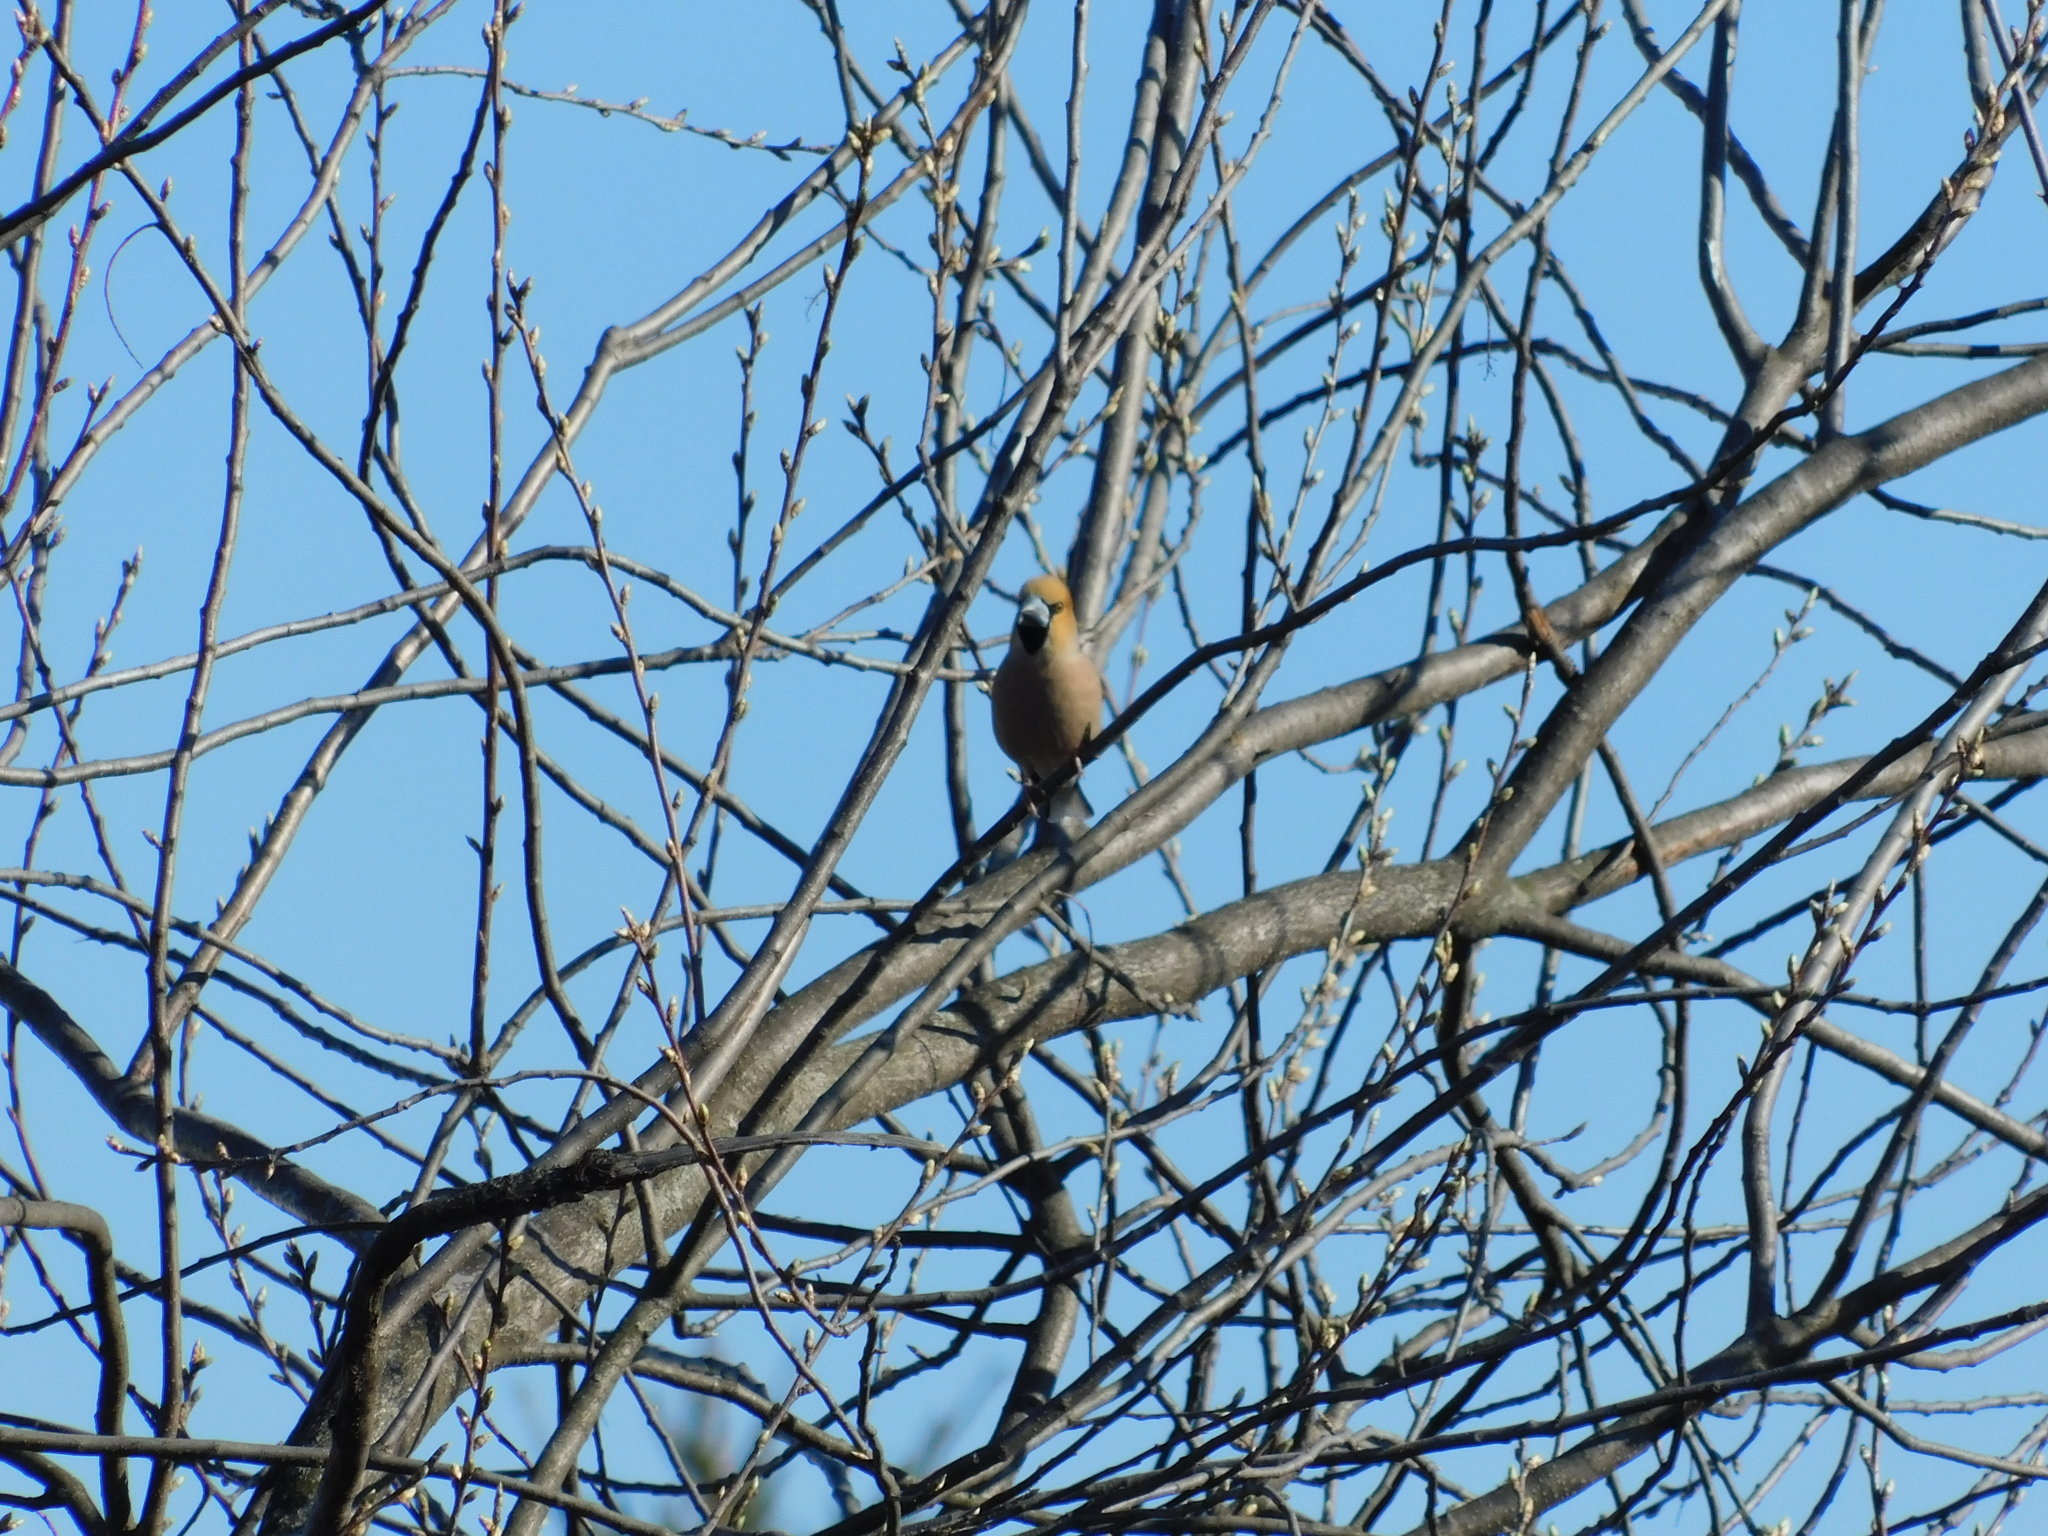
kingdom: Animalia
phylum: Chordata
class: Aves
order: Passeriformes
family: Fringillidae
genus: Coccothraustes
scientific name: Coccothraustes coccothraustes
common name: Hawfinch
